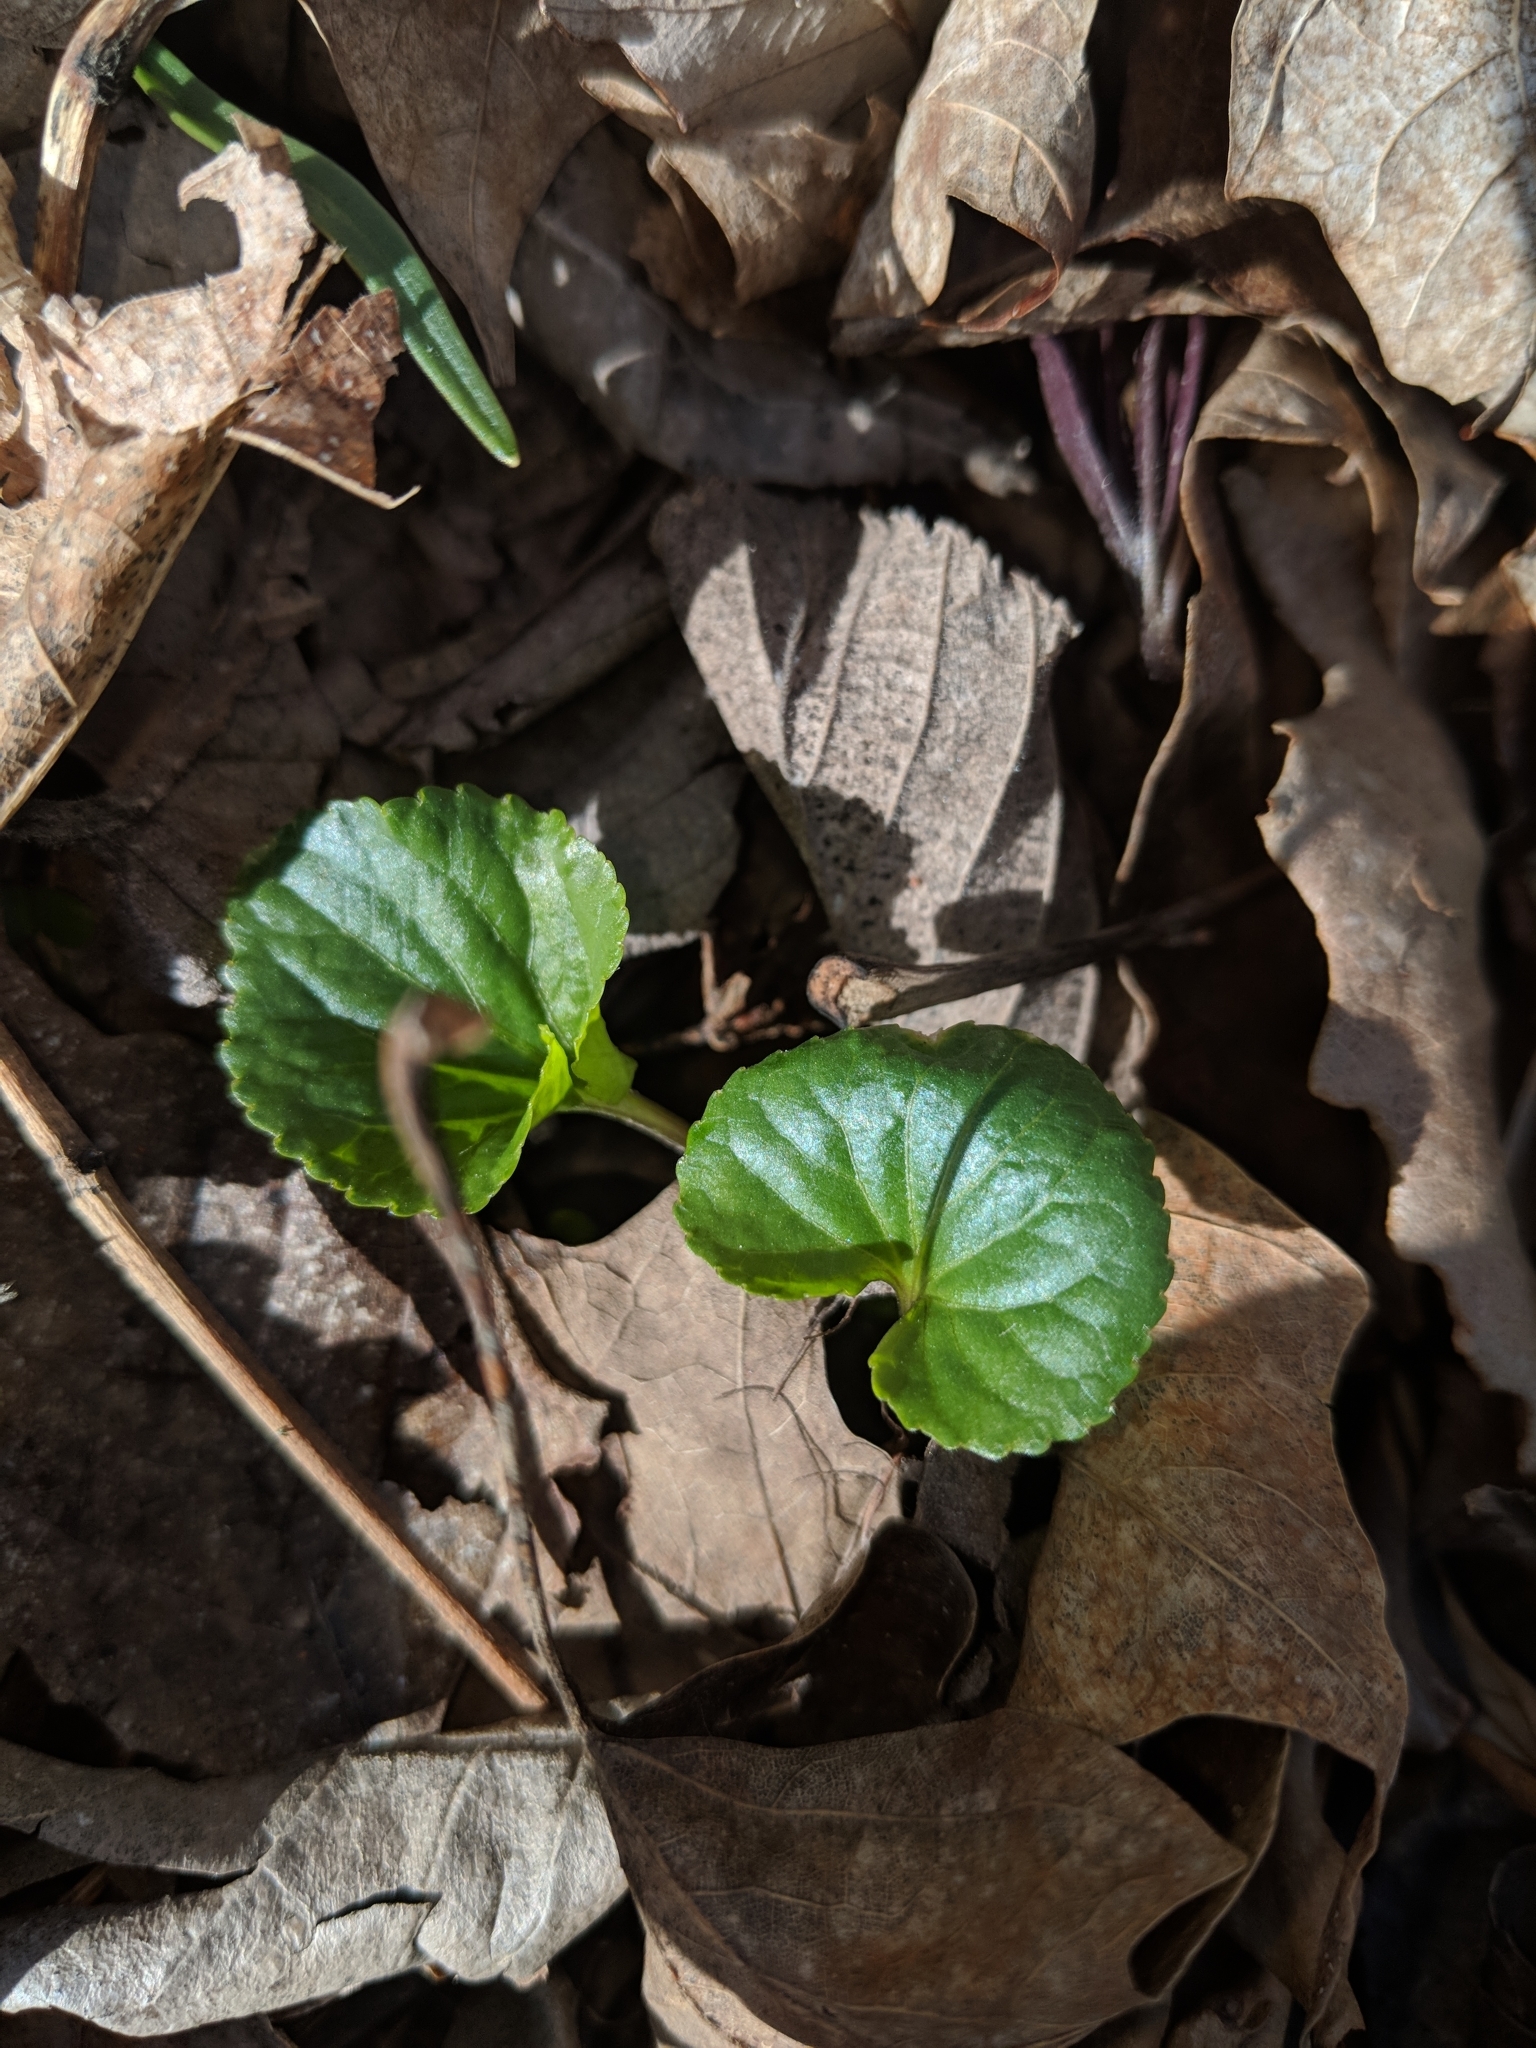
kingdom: Plantae
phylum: Tracheophyta
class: Magnoliopsida
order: Malpighiales
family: Violaceae
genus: Viola
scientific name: Viola sororia
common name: Dooryard violet
